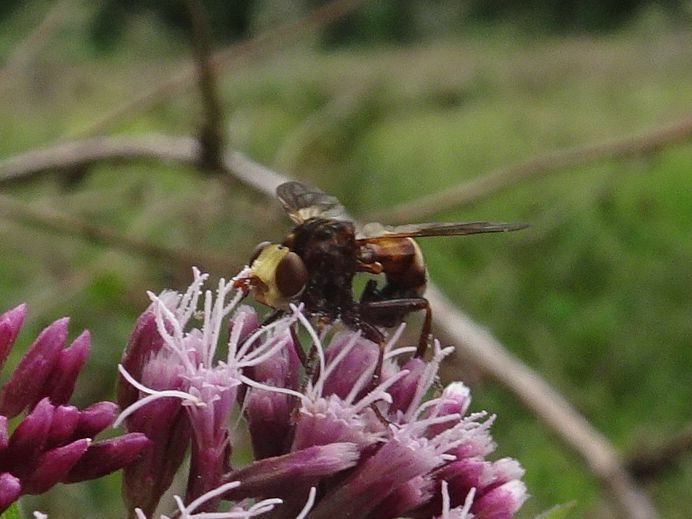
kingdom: Animalia
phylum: Arthropoda
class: Insecta
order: Diptera
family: Conopidae
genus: Sicus
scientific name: Sicus ferrugineus
